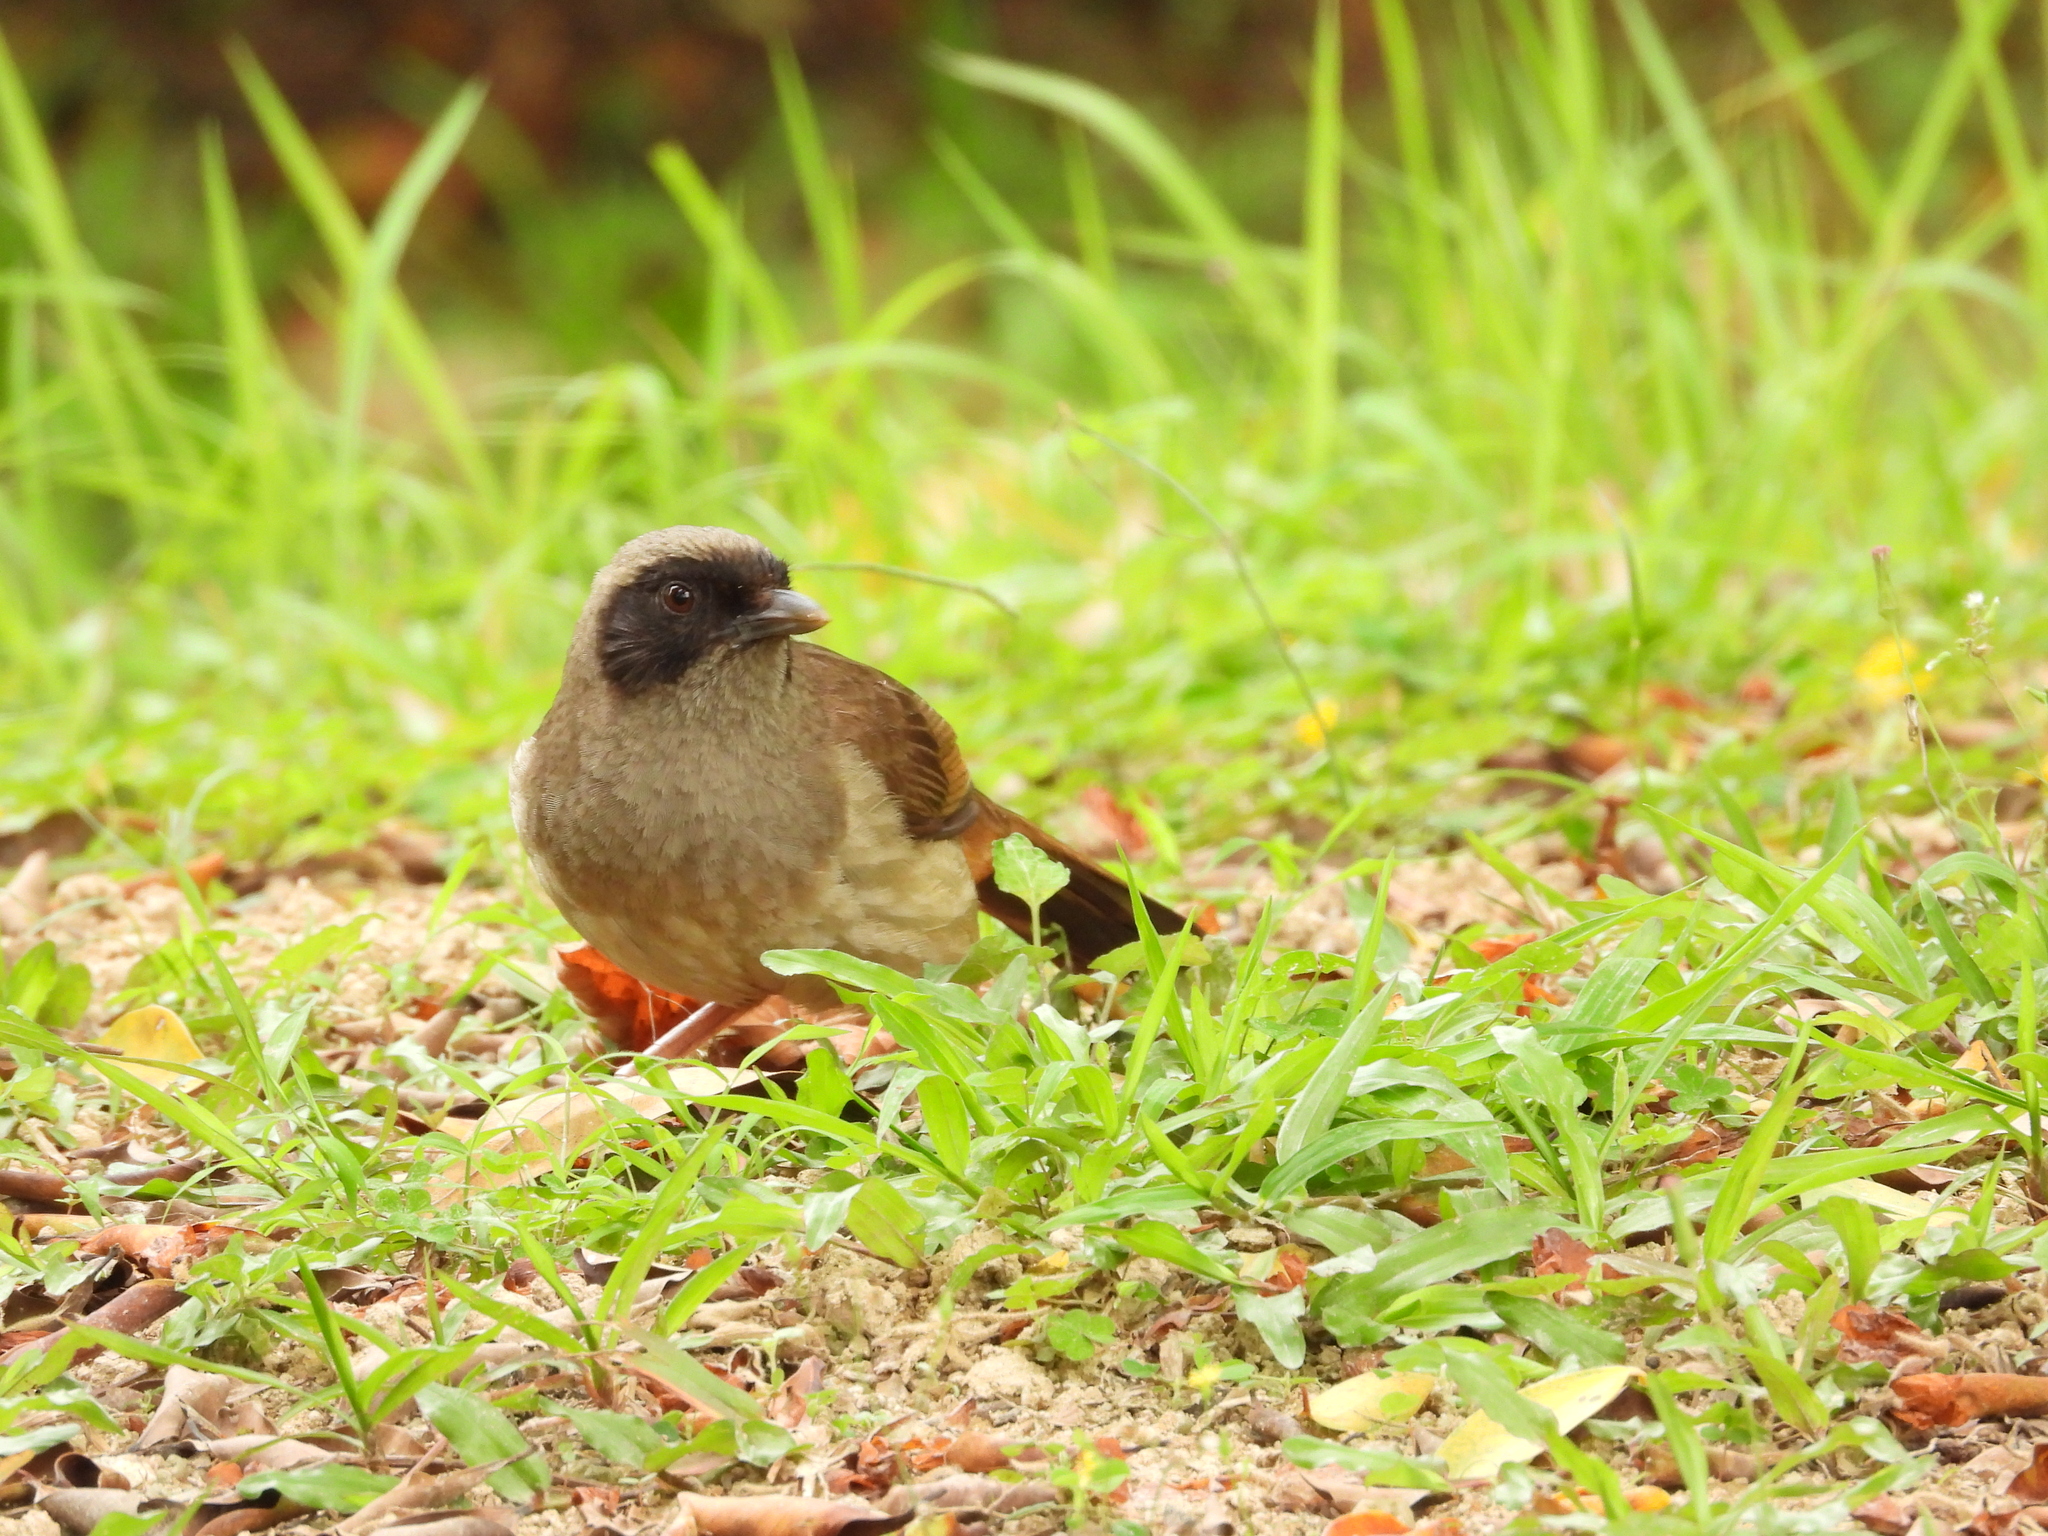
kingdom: Animalia
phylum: Chordata
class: Aves
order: Passeriformes
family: Leiothrichidae
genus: Garrulax
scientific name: Garrulax perspicillatus
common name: Masked laughingthrush
